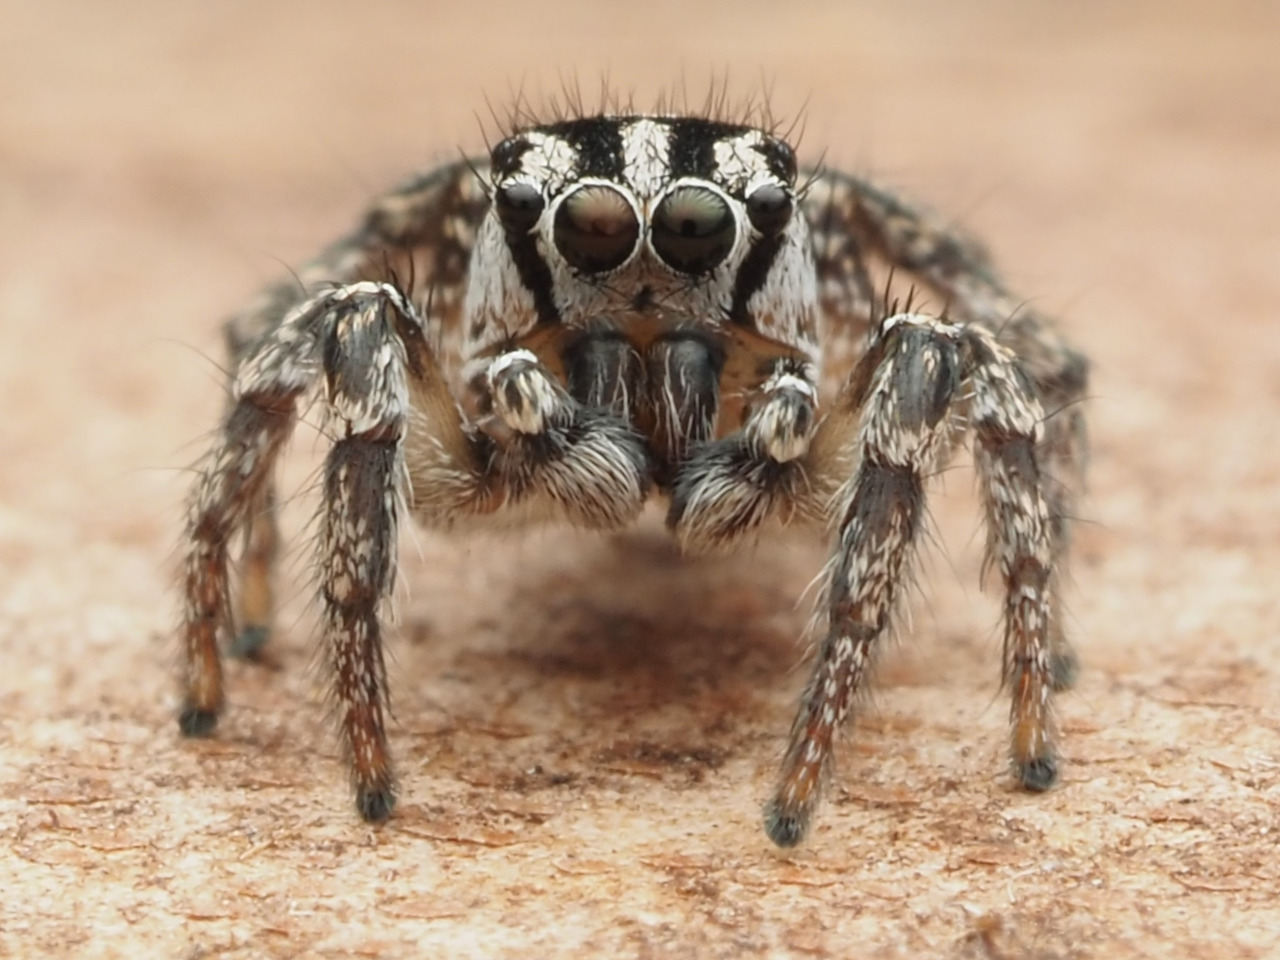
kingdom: Animalia
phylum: Arthropoda
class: Arachnida
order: Araneae
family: Salticidae
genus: Habronattus
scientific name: Habronattus trimaculatus
